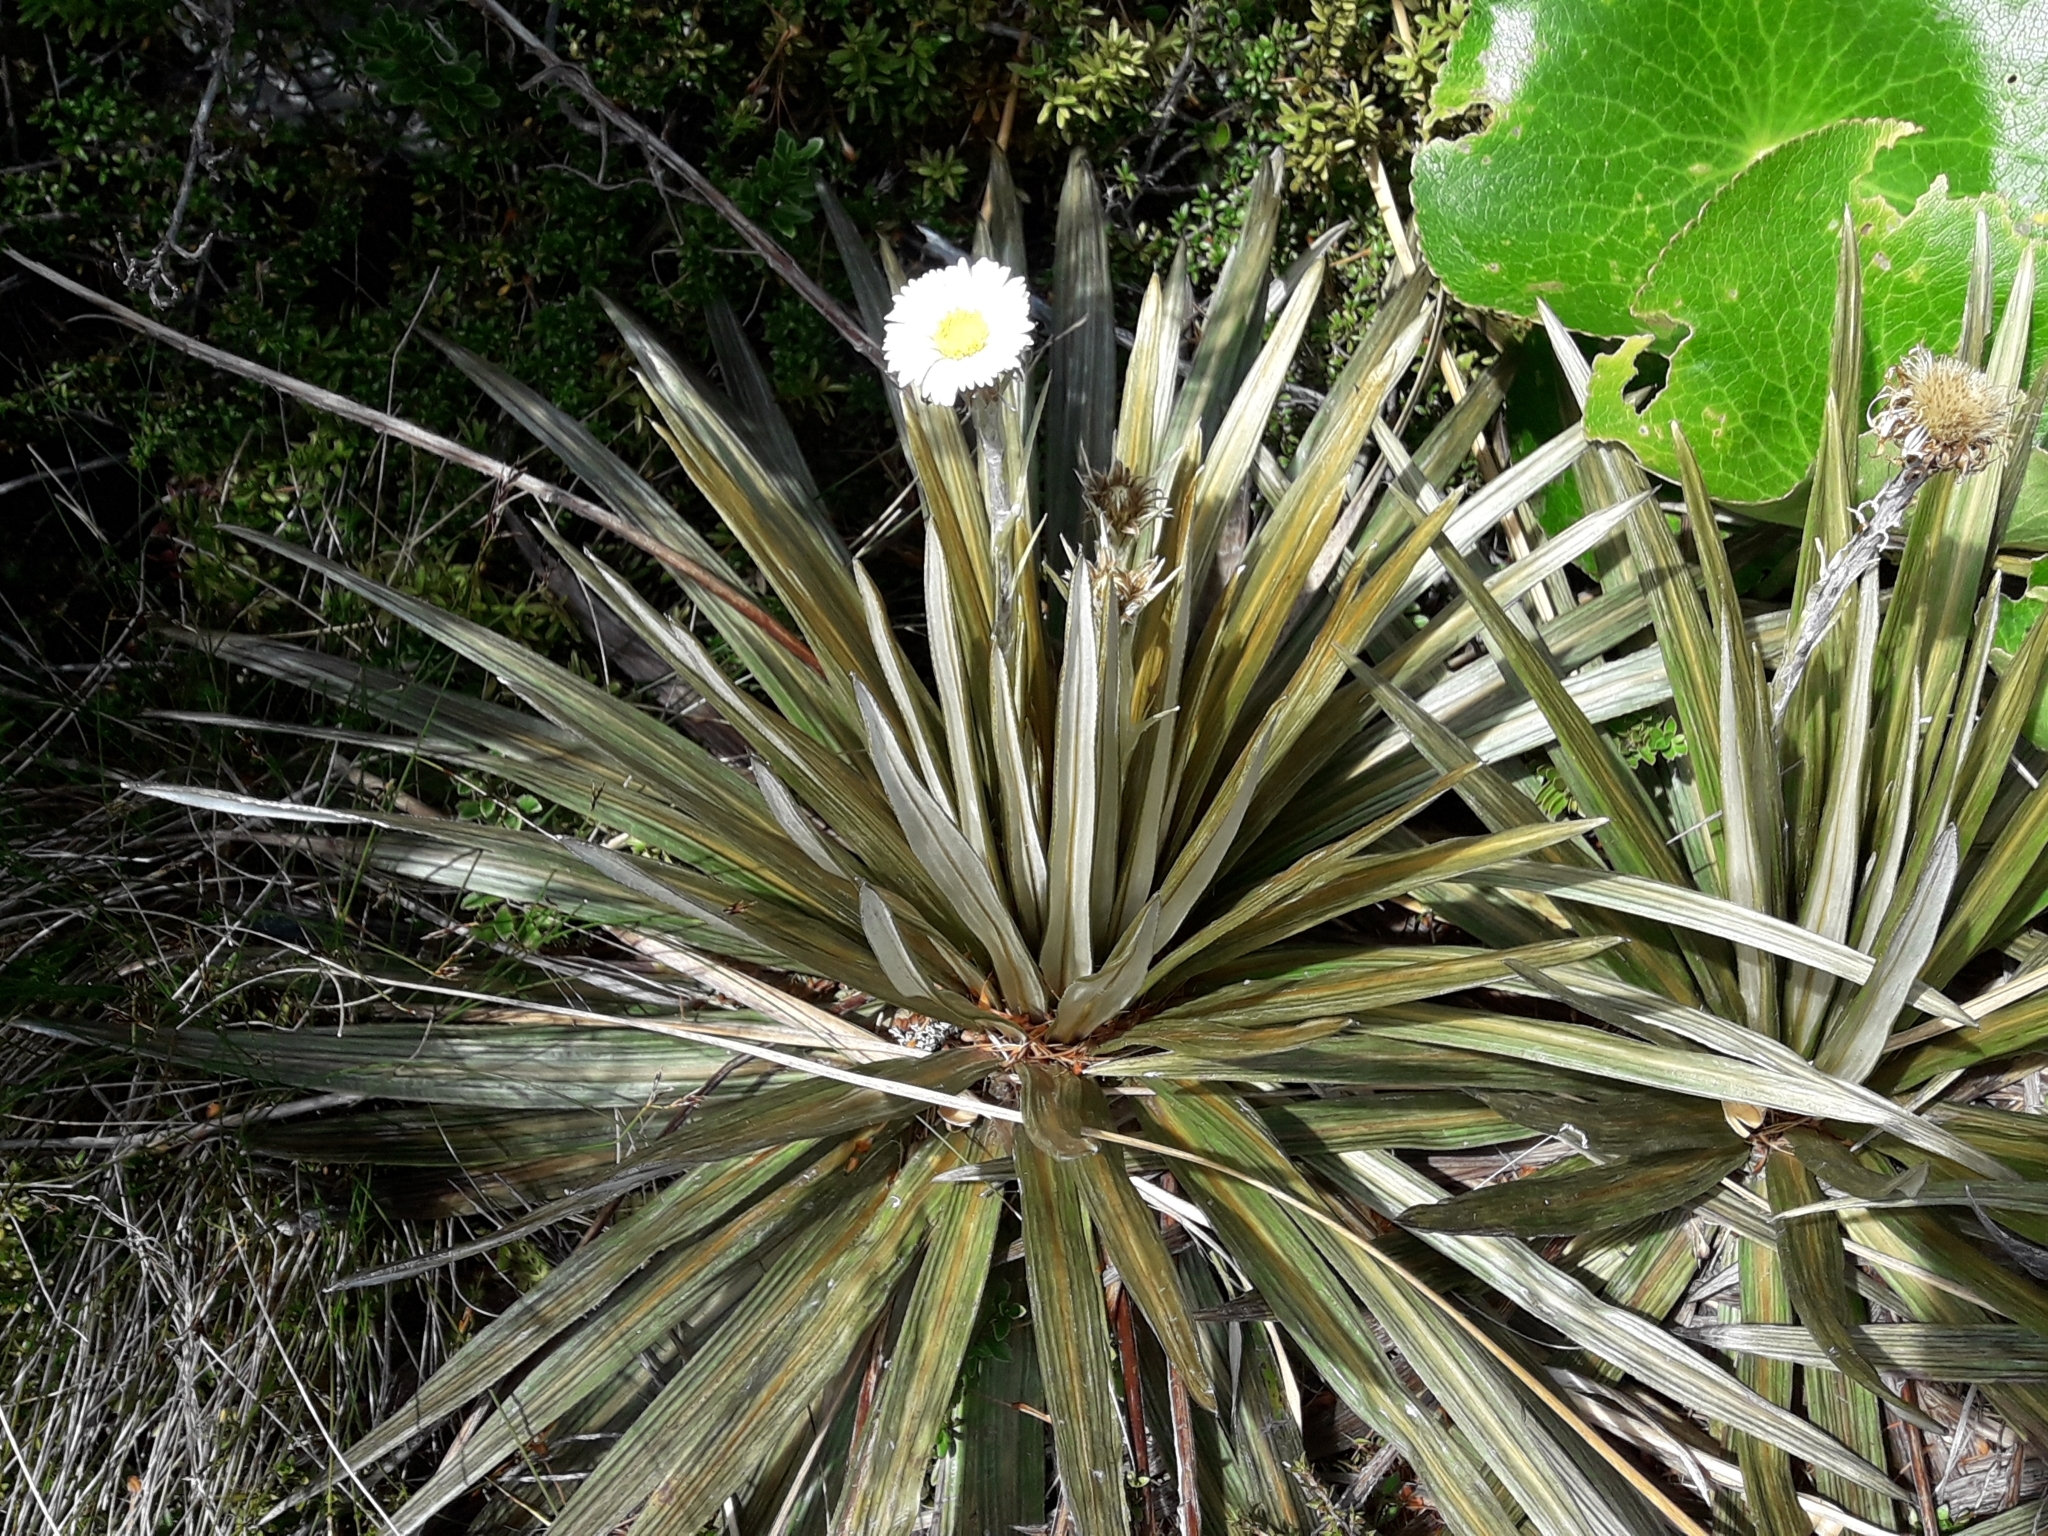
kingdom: Plantae
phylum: Tracheophyta
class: Magnoliopsida
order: Asterales
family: Asteraceae
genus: Celmisia
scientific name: Celmisia armstrongii
